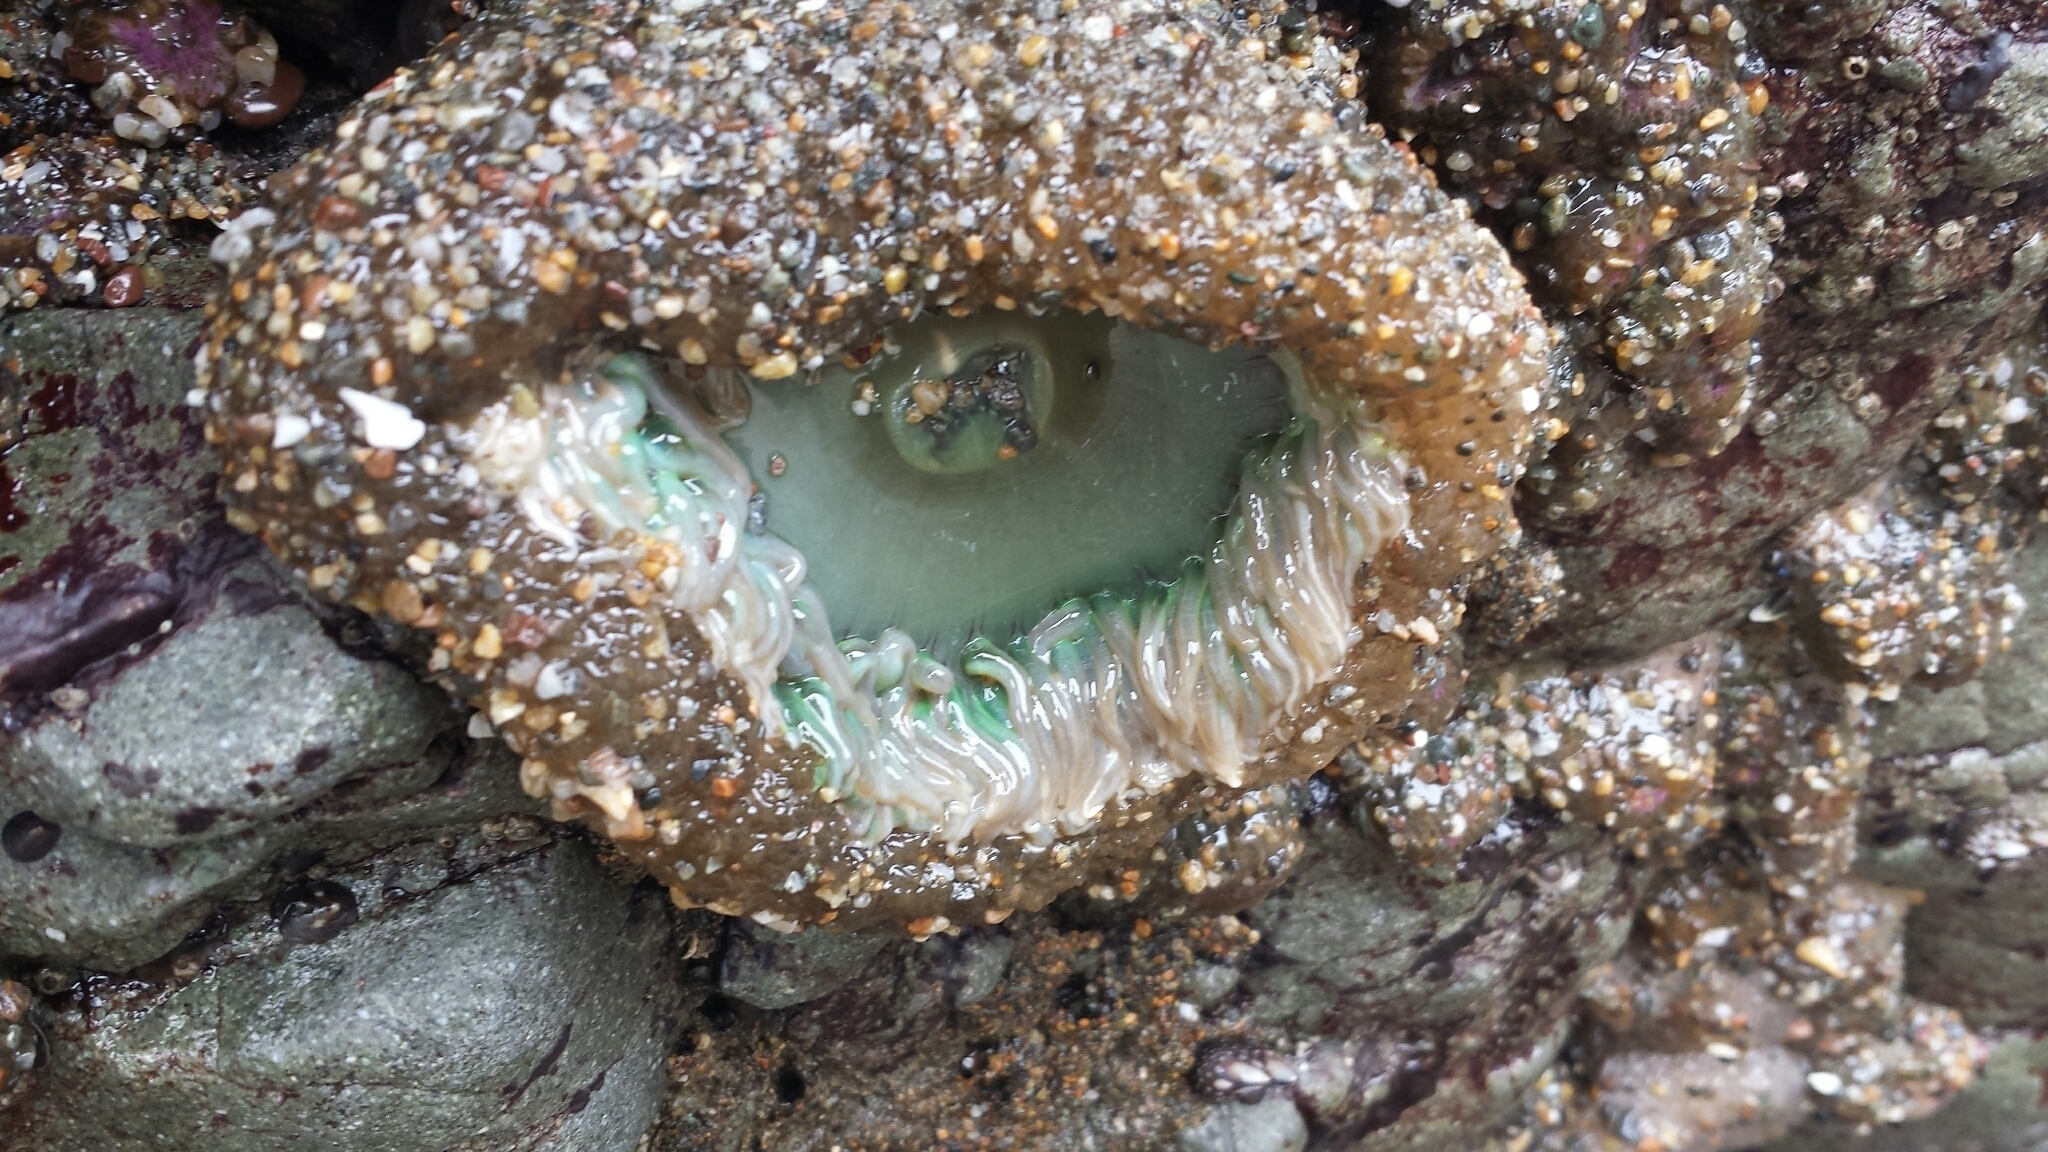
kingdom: Animalia
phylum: Cnidaria
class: Anthozoa
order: Actiniaria
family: Actiniidae
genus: Anthopleura
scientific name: Anthopleura xanthogrammica
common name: Giant green anemone
